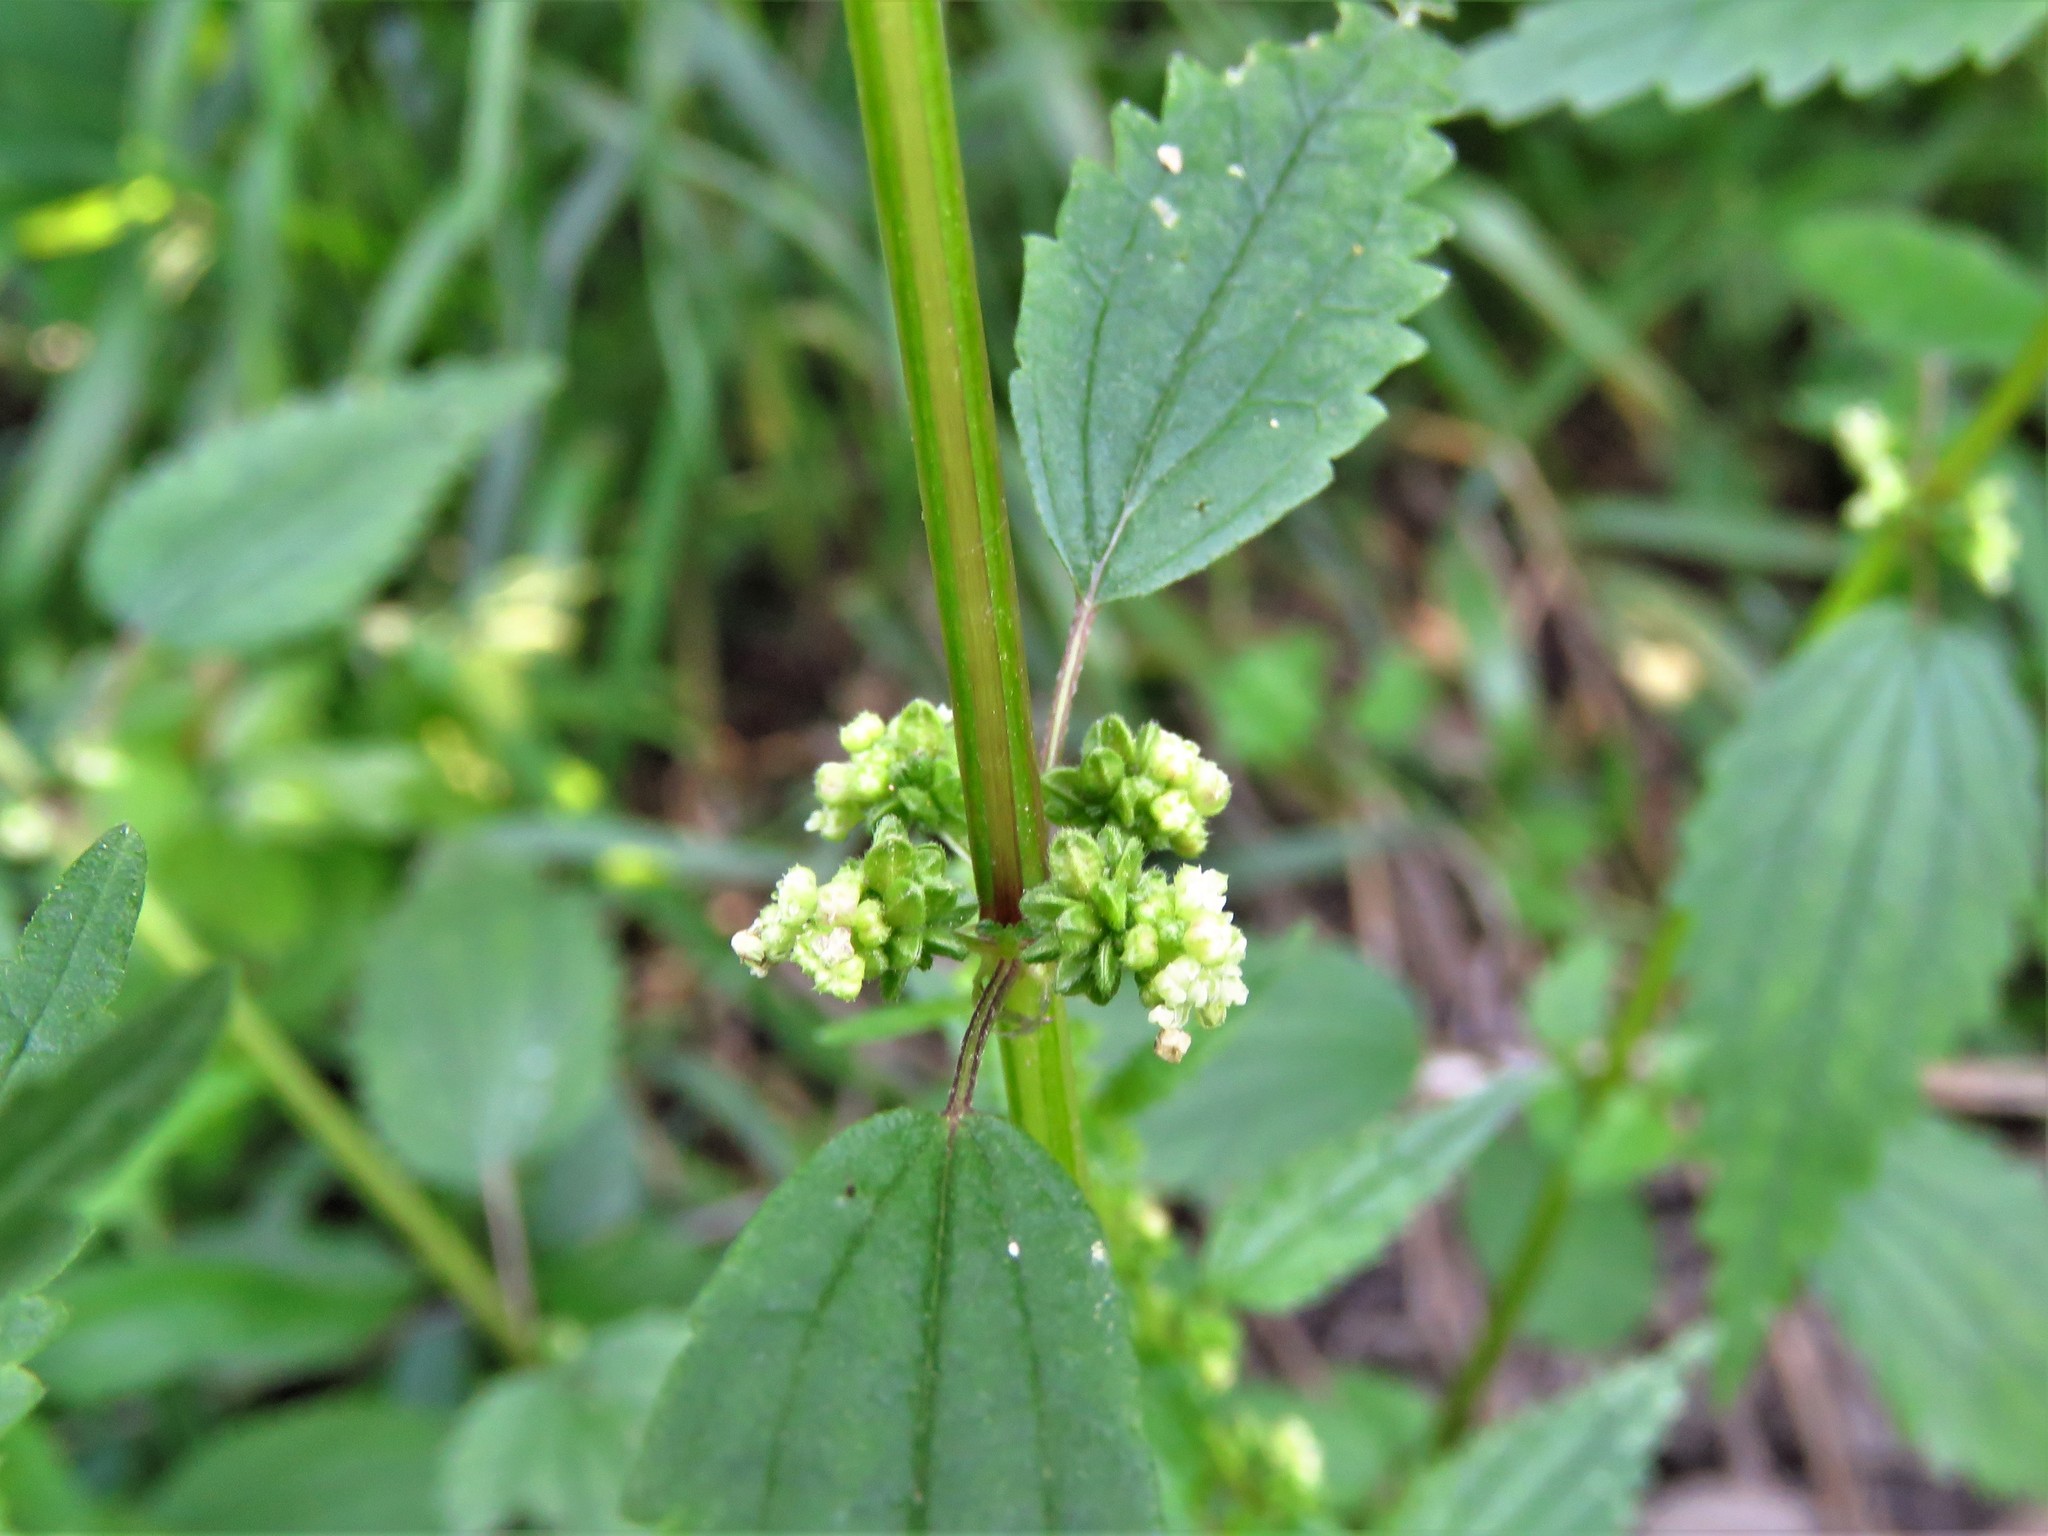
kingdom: Plantae
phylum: Tracheophyta
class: Magnoliopsida
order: Rosales
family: Urticaceae
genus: Urtica
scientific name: Urtica urens
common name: Dwarf nettle
